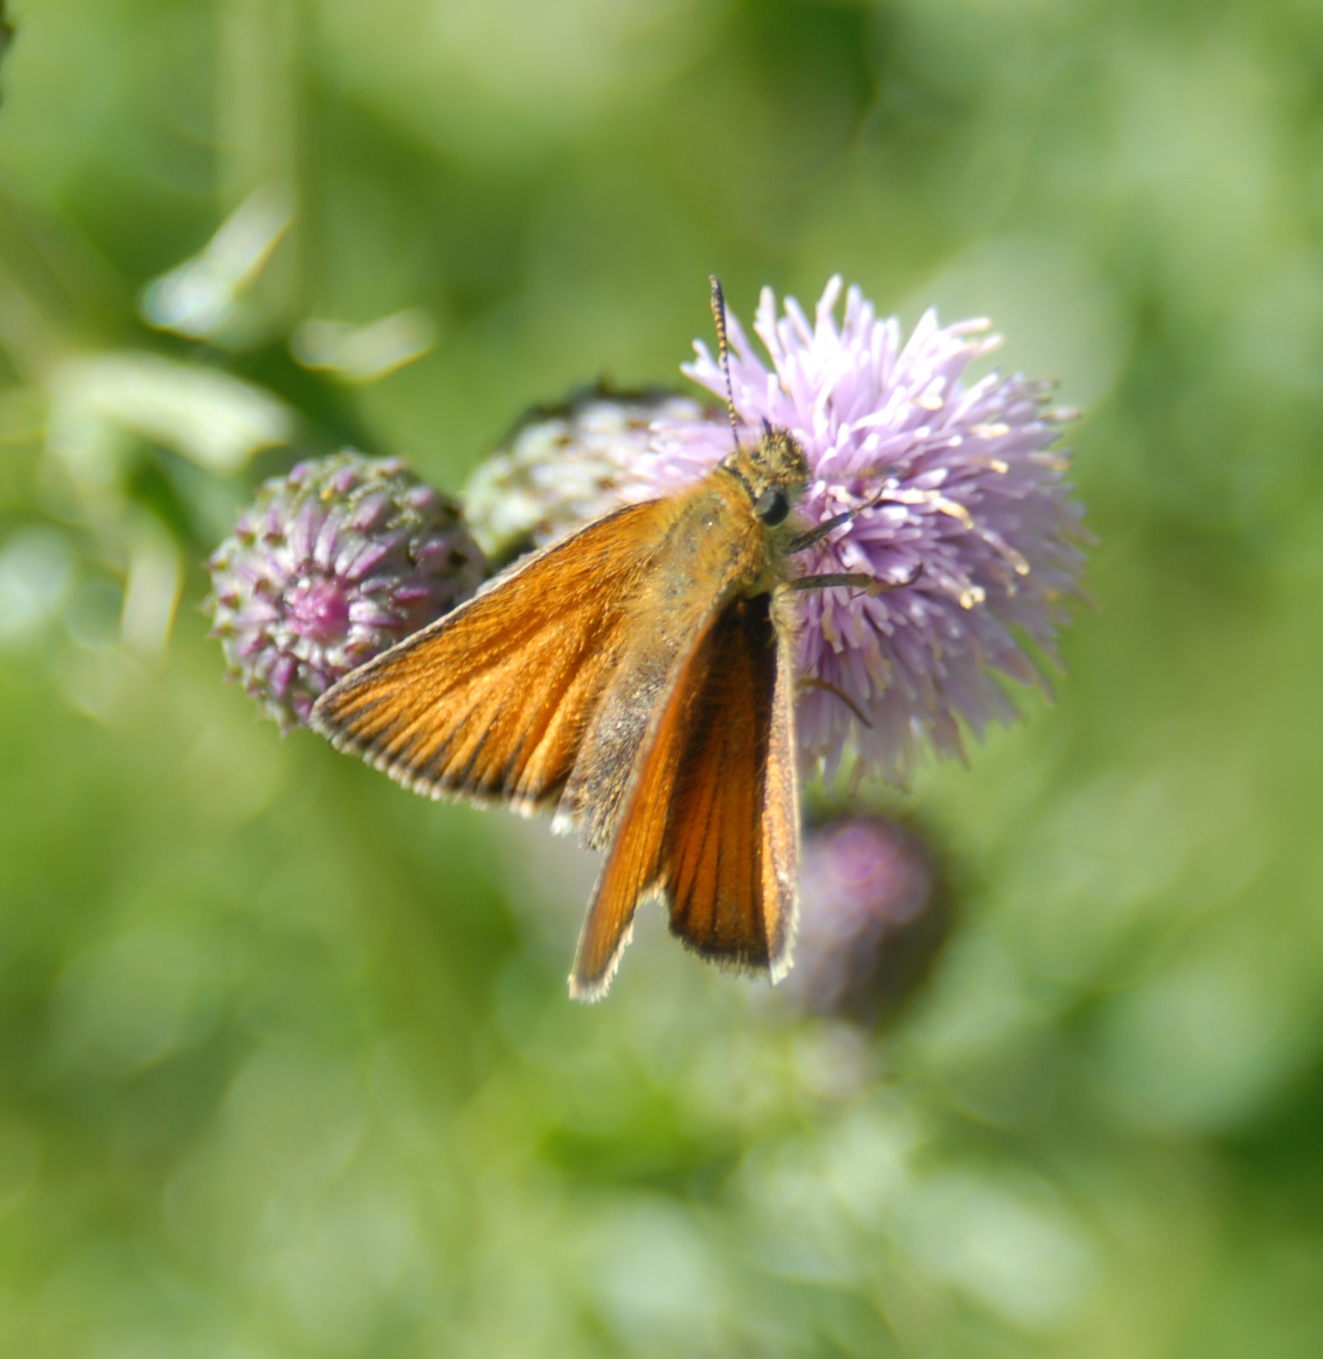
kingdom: Animalia
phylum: Arthropoda
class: Insecta
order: Lepidoptera
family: Hesperiidae
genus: Thymelicus
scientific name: Thymelicus lineola
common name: Essex skipper
